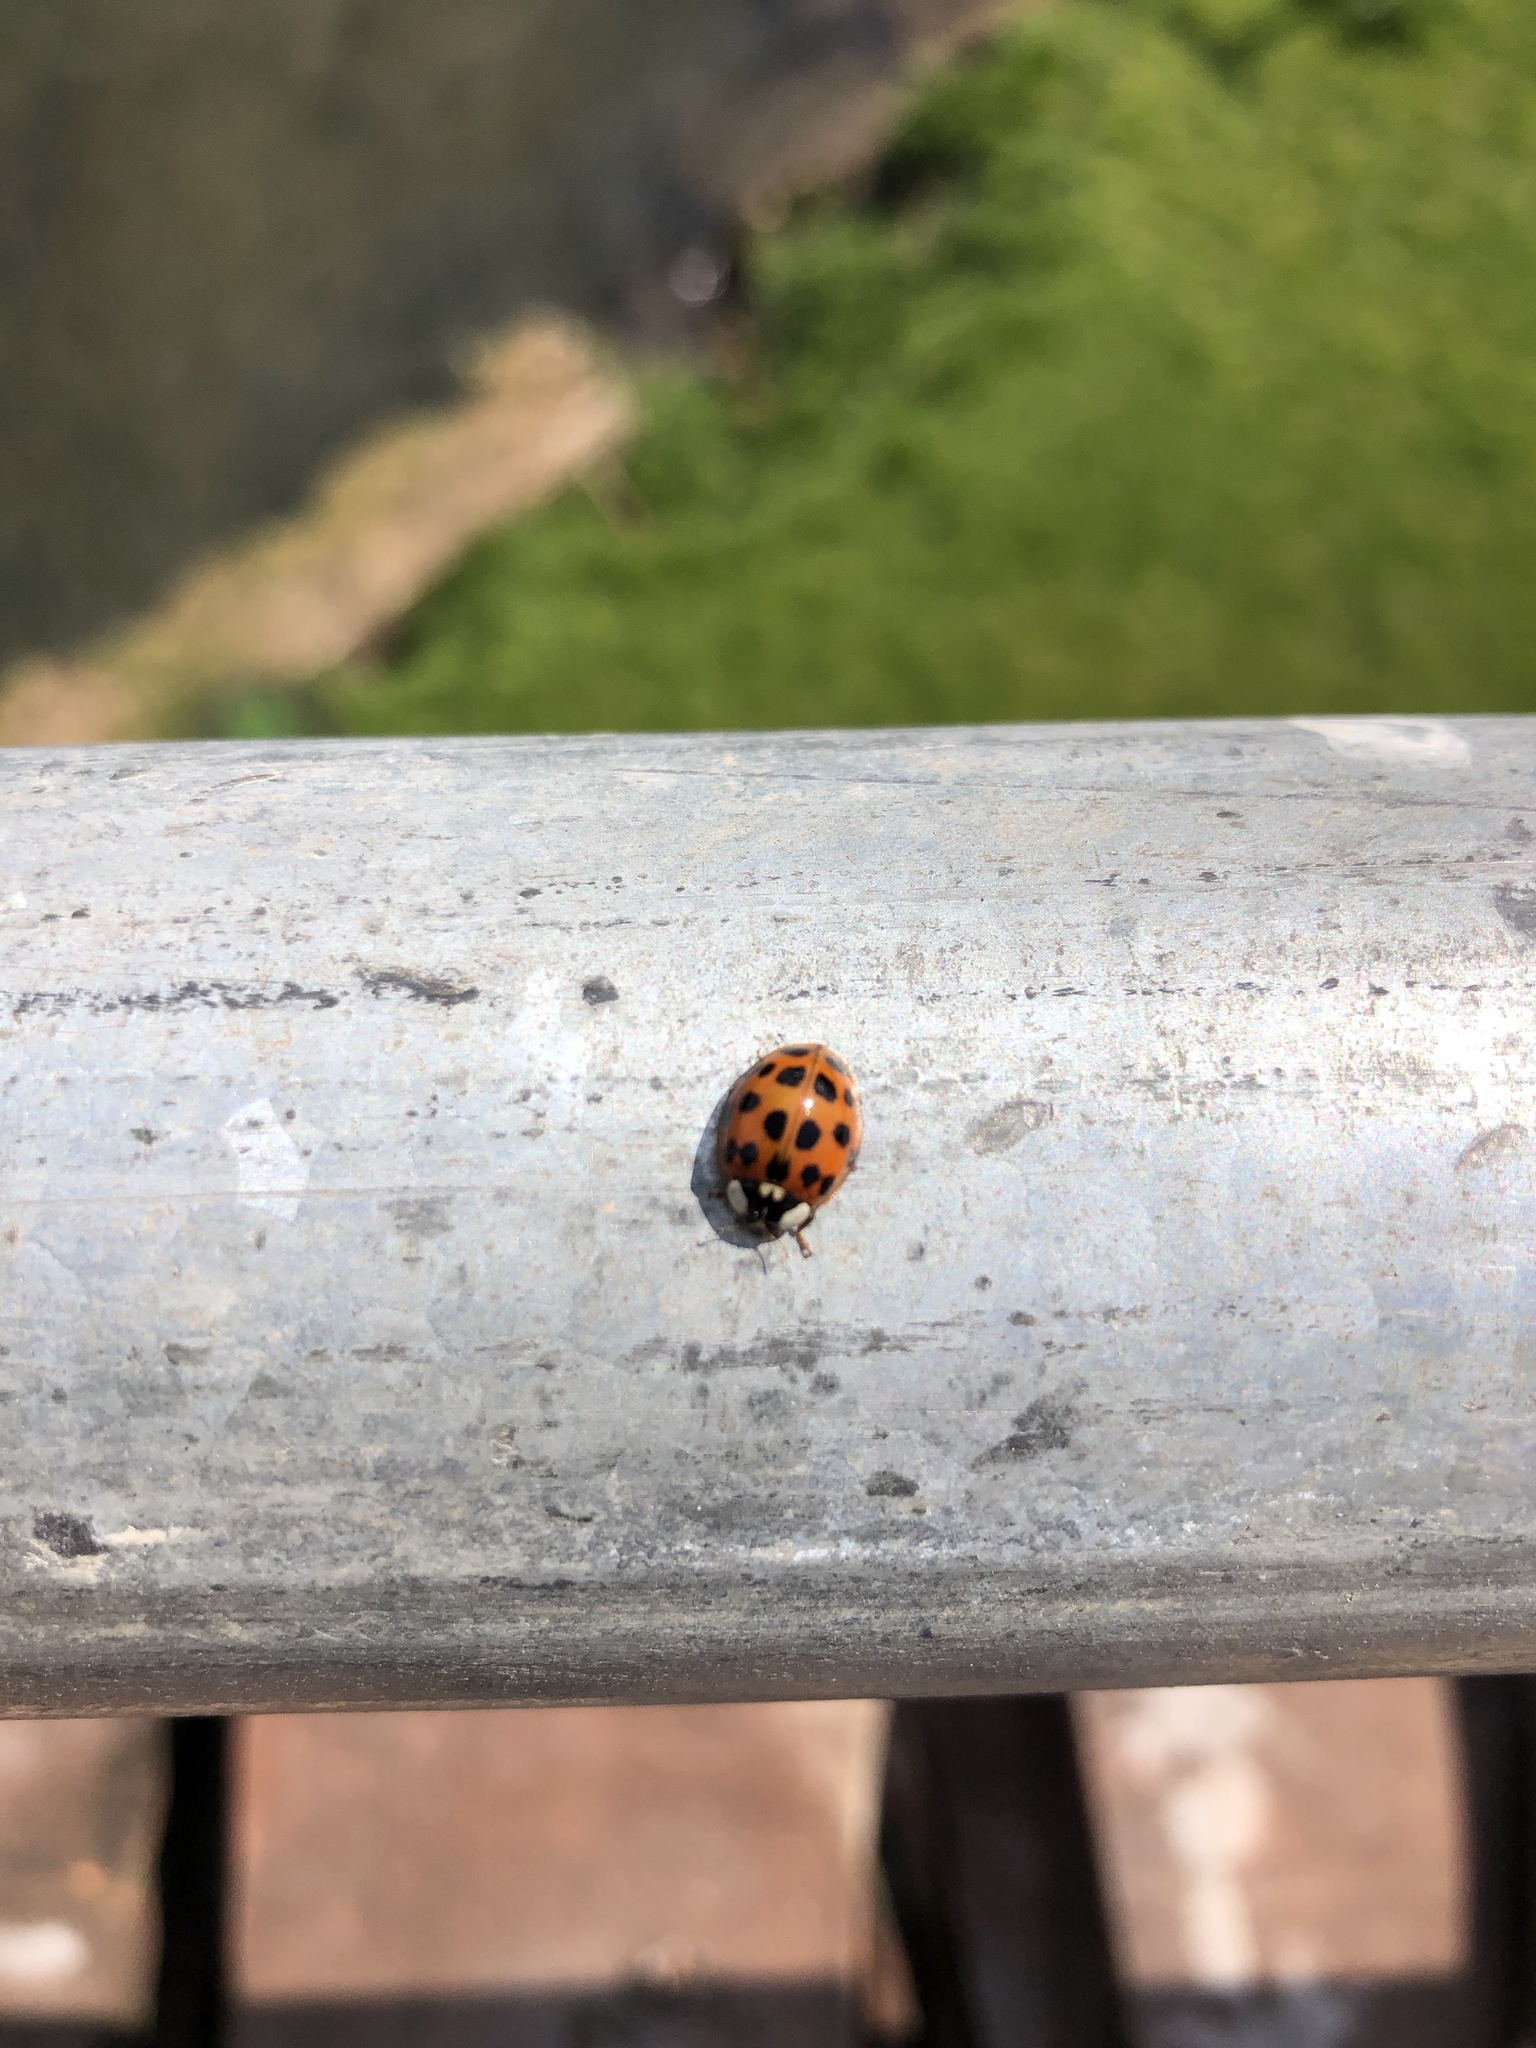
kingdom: Animalia
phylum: Arthropoda
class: Insecta
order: Coleoptera
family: Coccinellidae
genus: Harmonia
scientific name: Harmonia axyridis
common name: Harlequin ladybird
